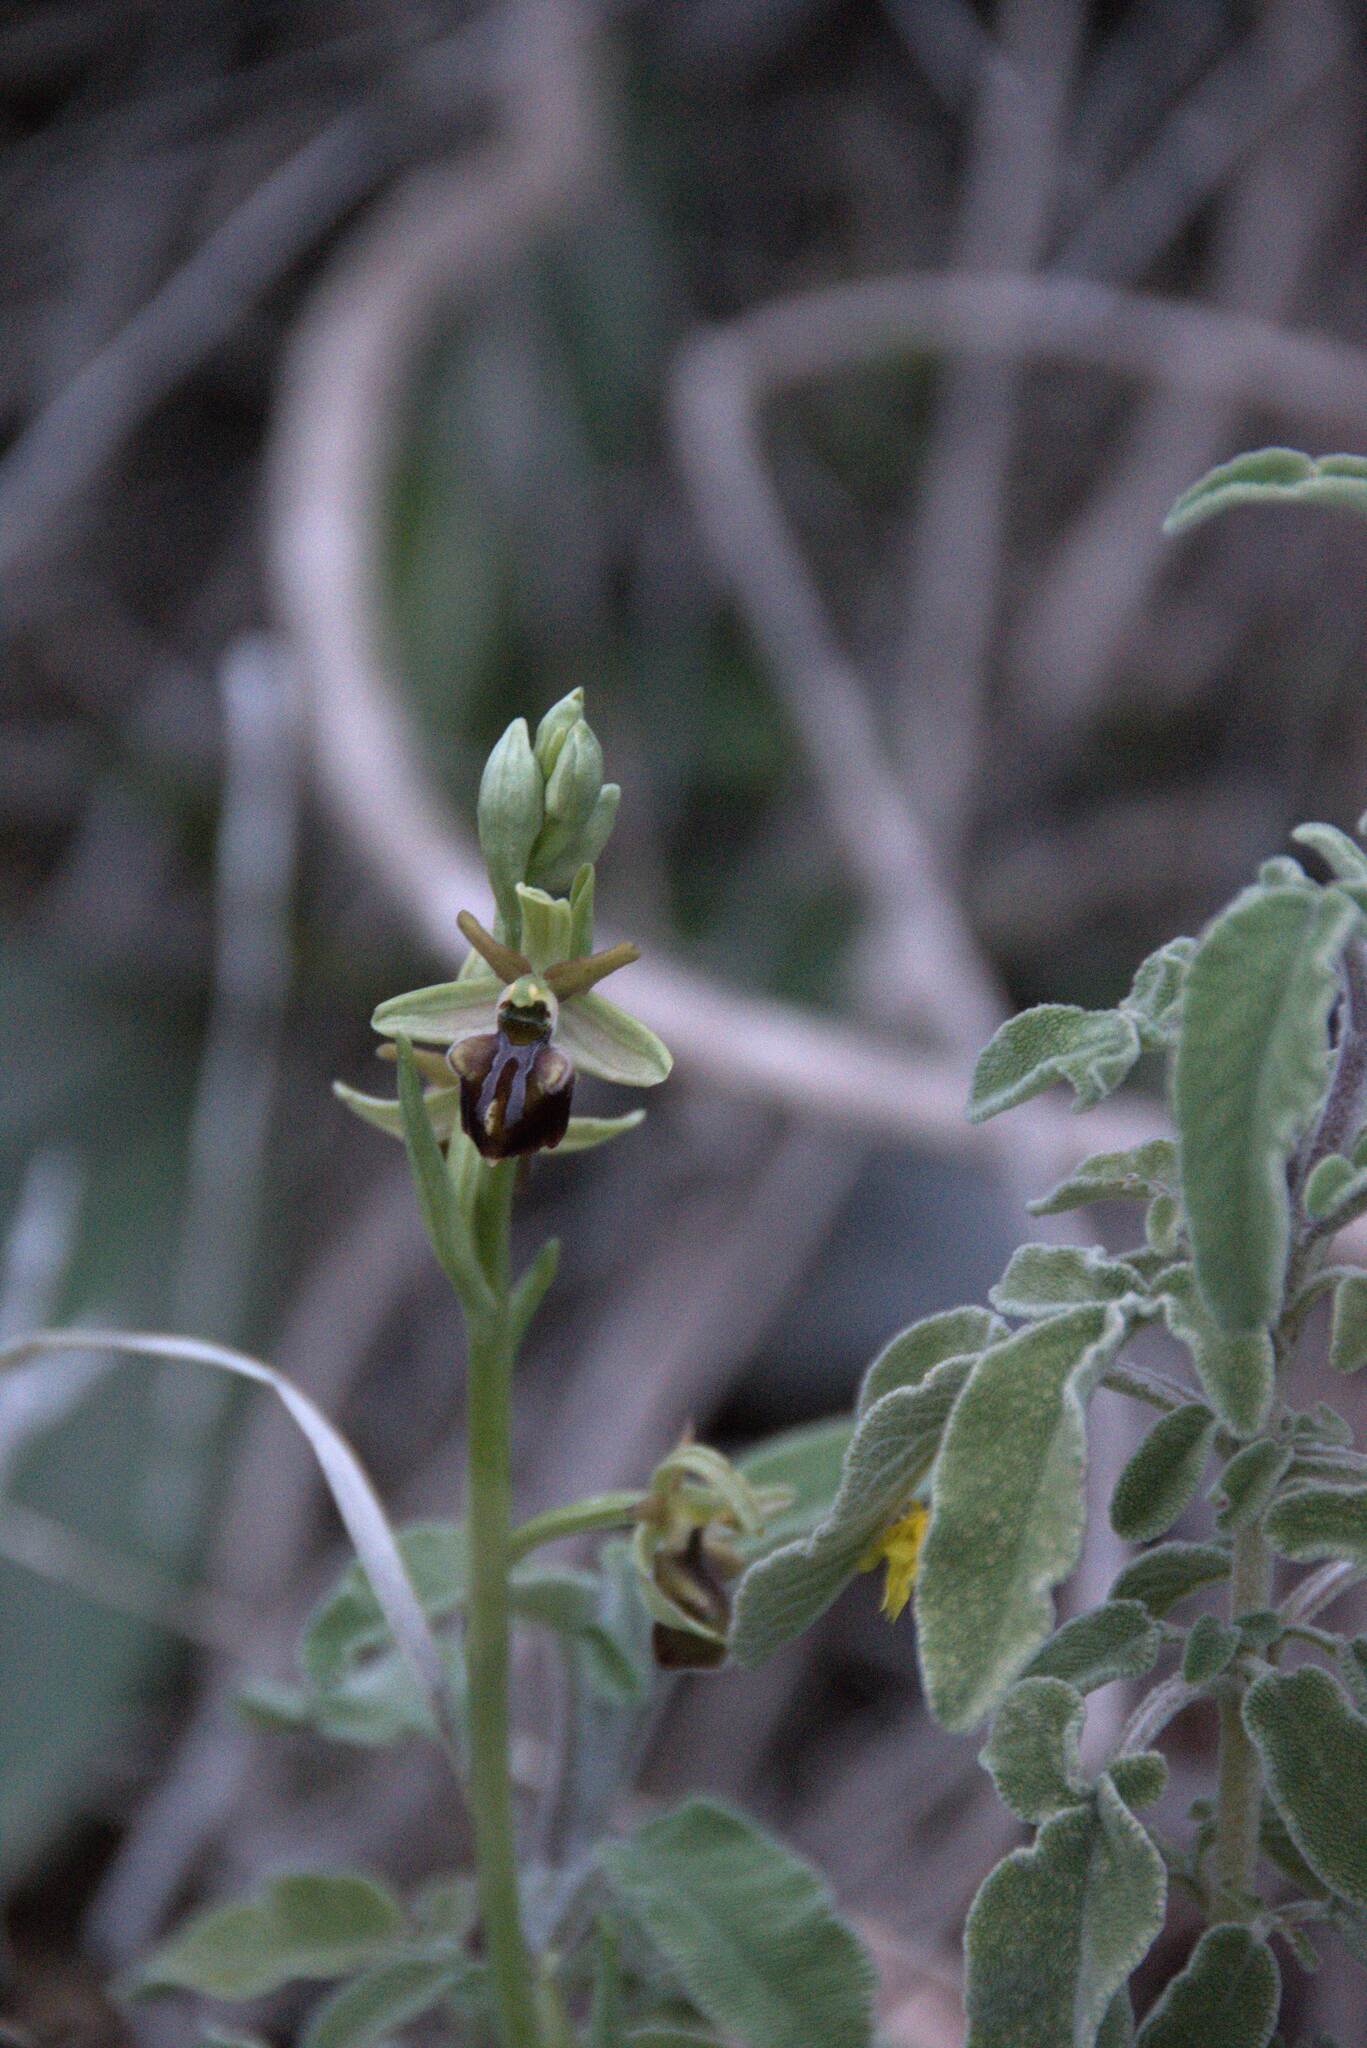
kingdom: Plantae
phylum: Tracheophyta
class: Liliopsida
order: Asparagales
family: Orchidaceae
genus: Ophrys
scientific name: Ophrys sphegodes
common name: Early spider-orchid
